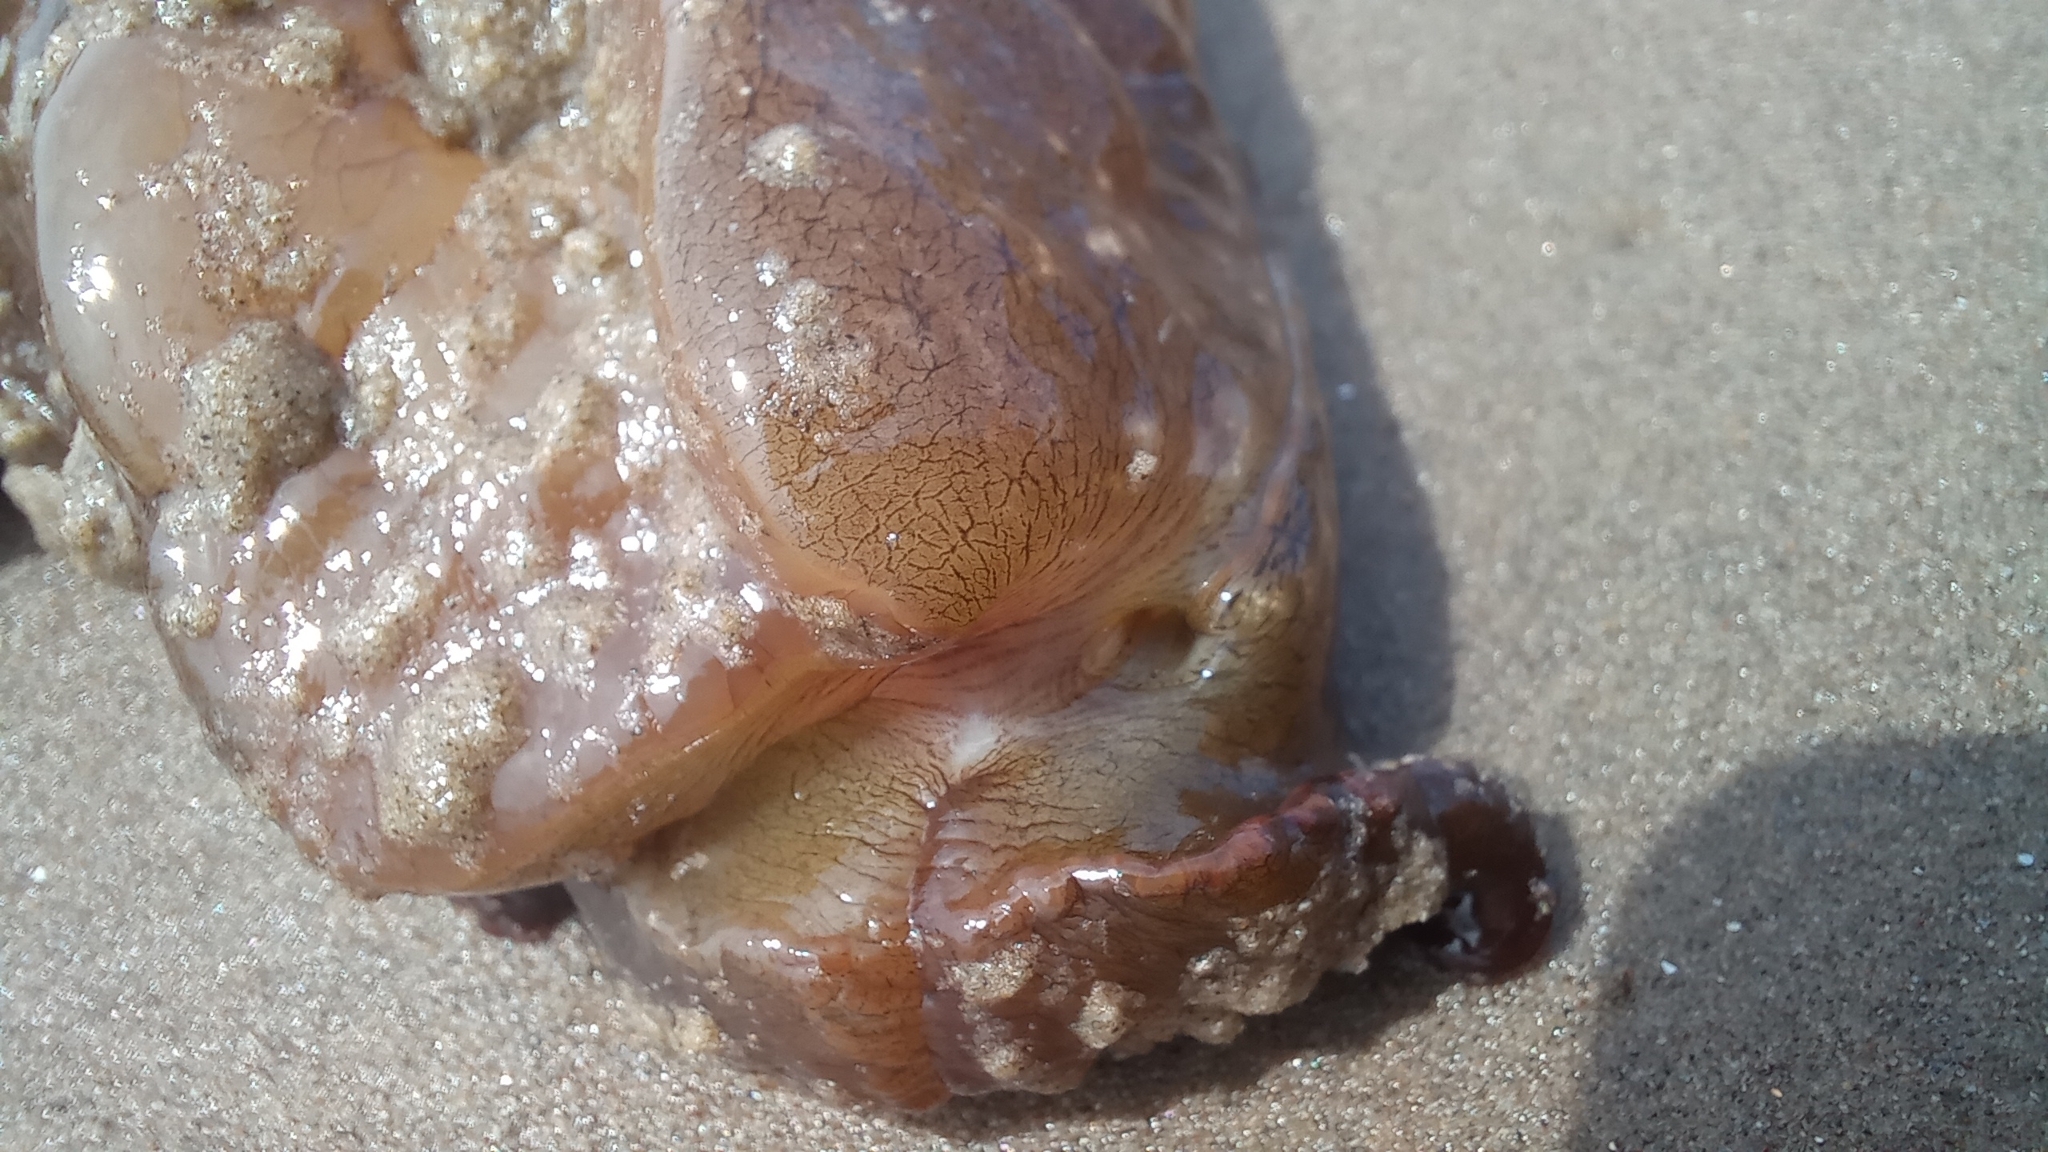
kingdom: Animalia
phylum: Mollusca
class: Gastropoda
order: Aplysiida
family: Aplysiidae
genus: Aplysia
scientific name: Aplysia brasiliana
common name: Mottled seahare
